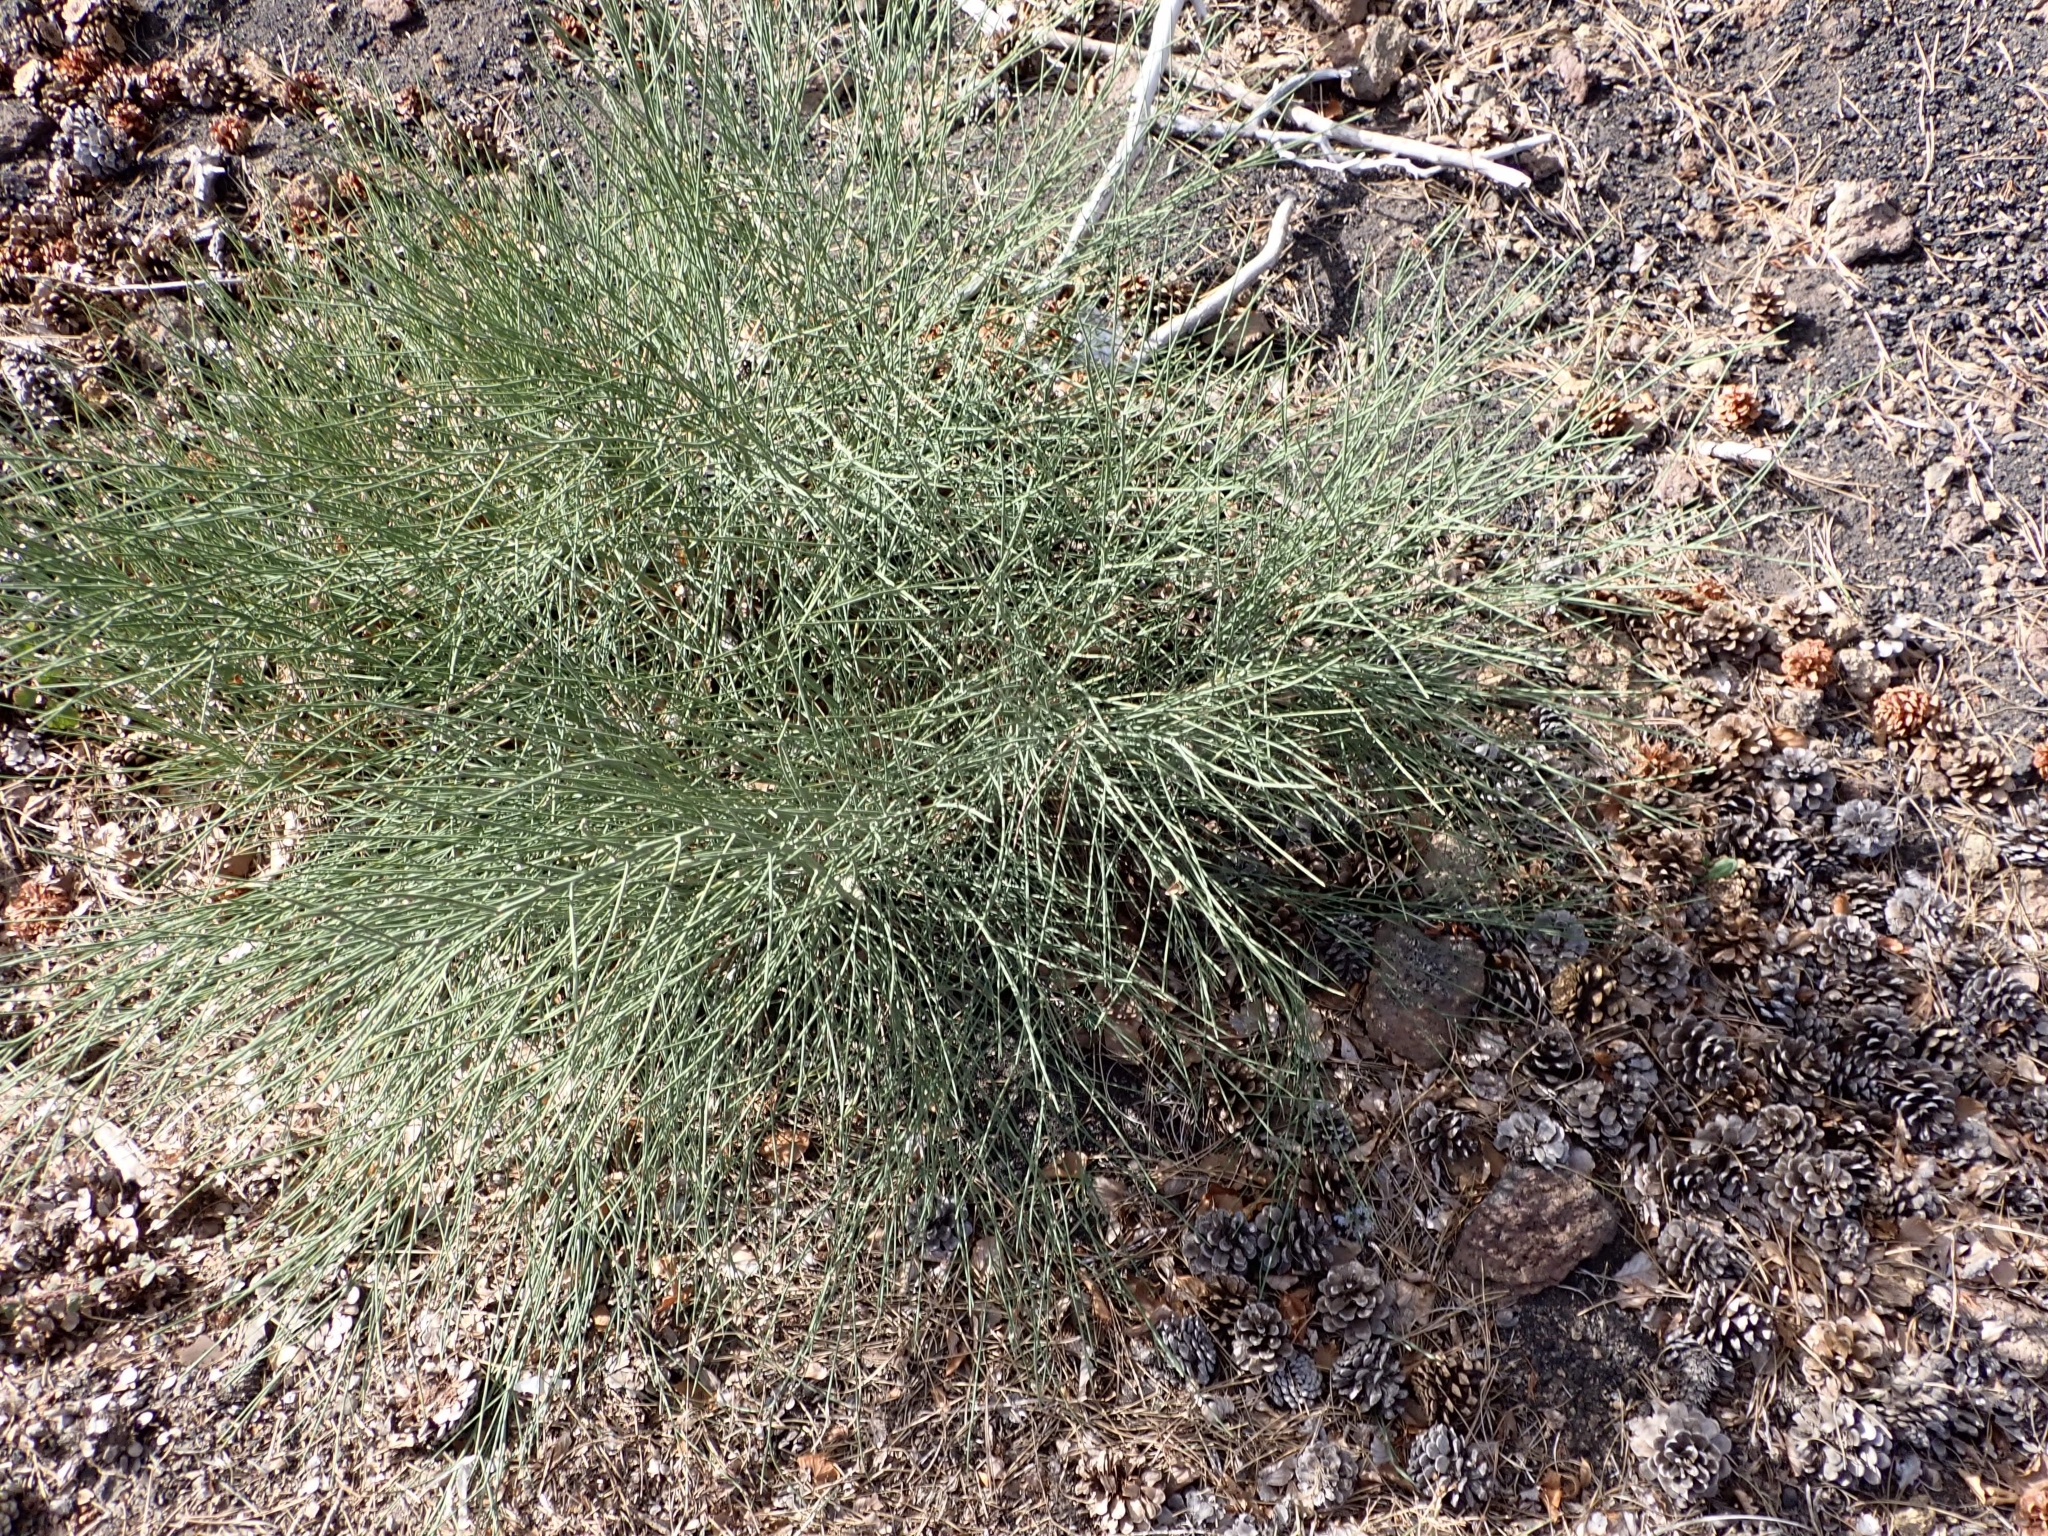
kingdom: Plantae
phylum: Tracheophyta
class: Magnoliopsida
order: Fabales
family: Fabaceae
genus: Genista
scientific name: Genista aetnensis
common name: Mount etna broom
